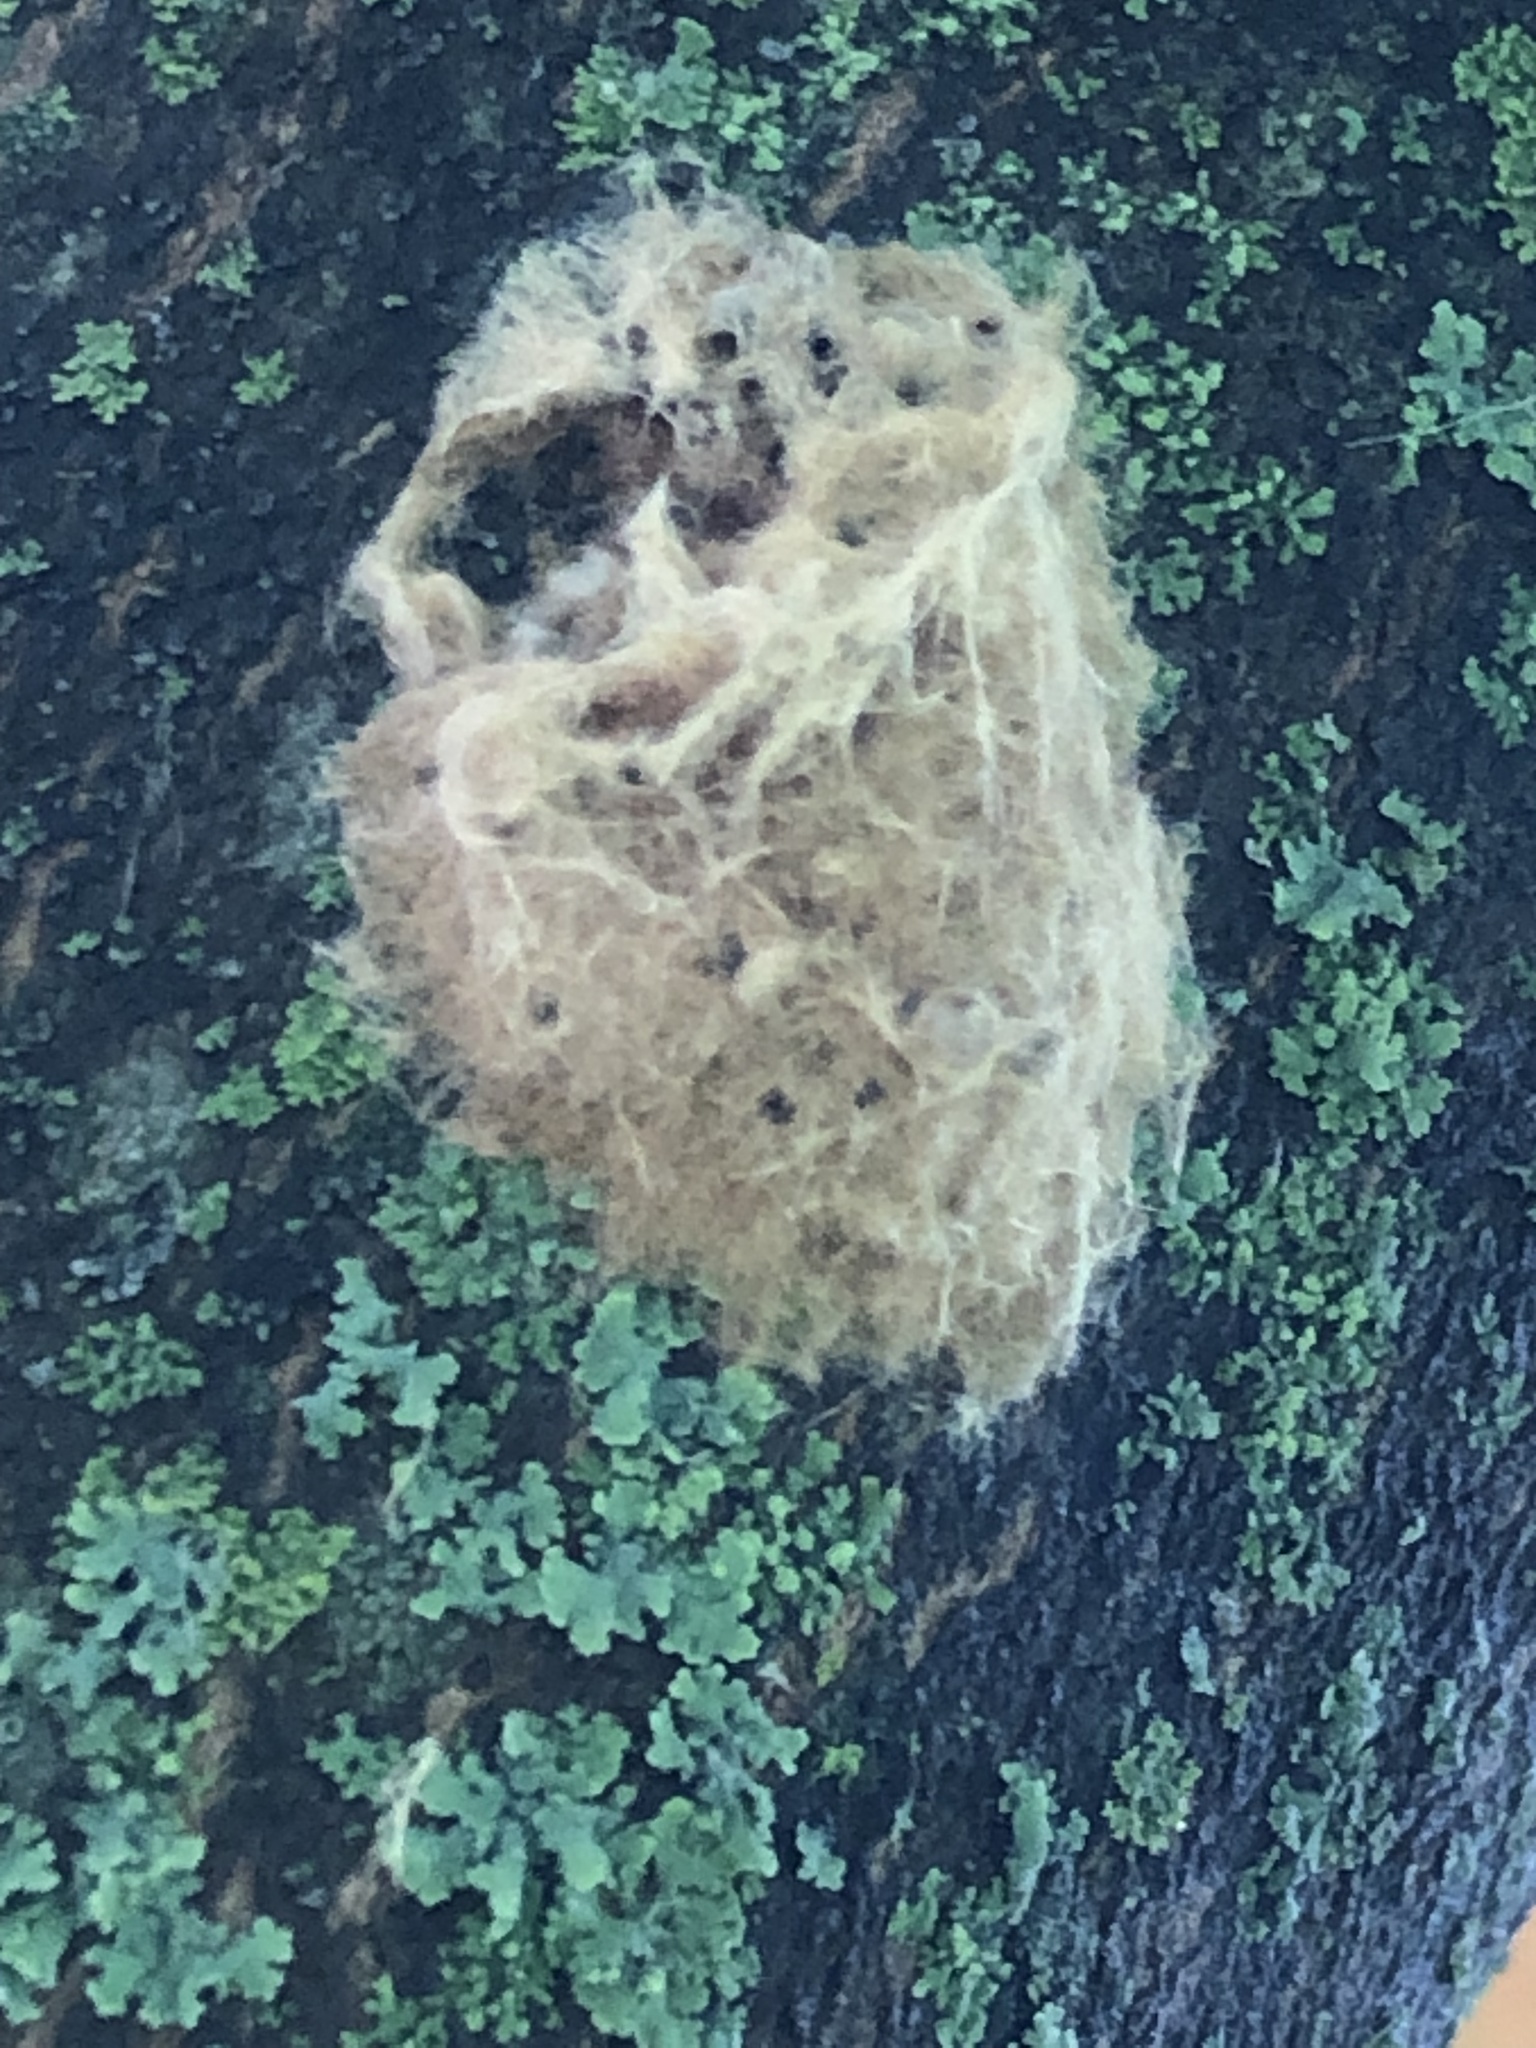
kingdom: Animalia
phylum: Arthropoda
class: Insecta
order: Lepidoptera
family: Erebidae
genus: Lymantria
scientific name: Lymantria dispar
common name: Gypsy moth
